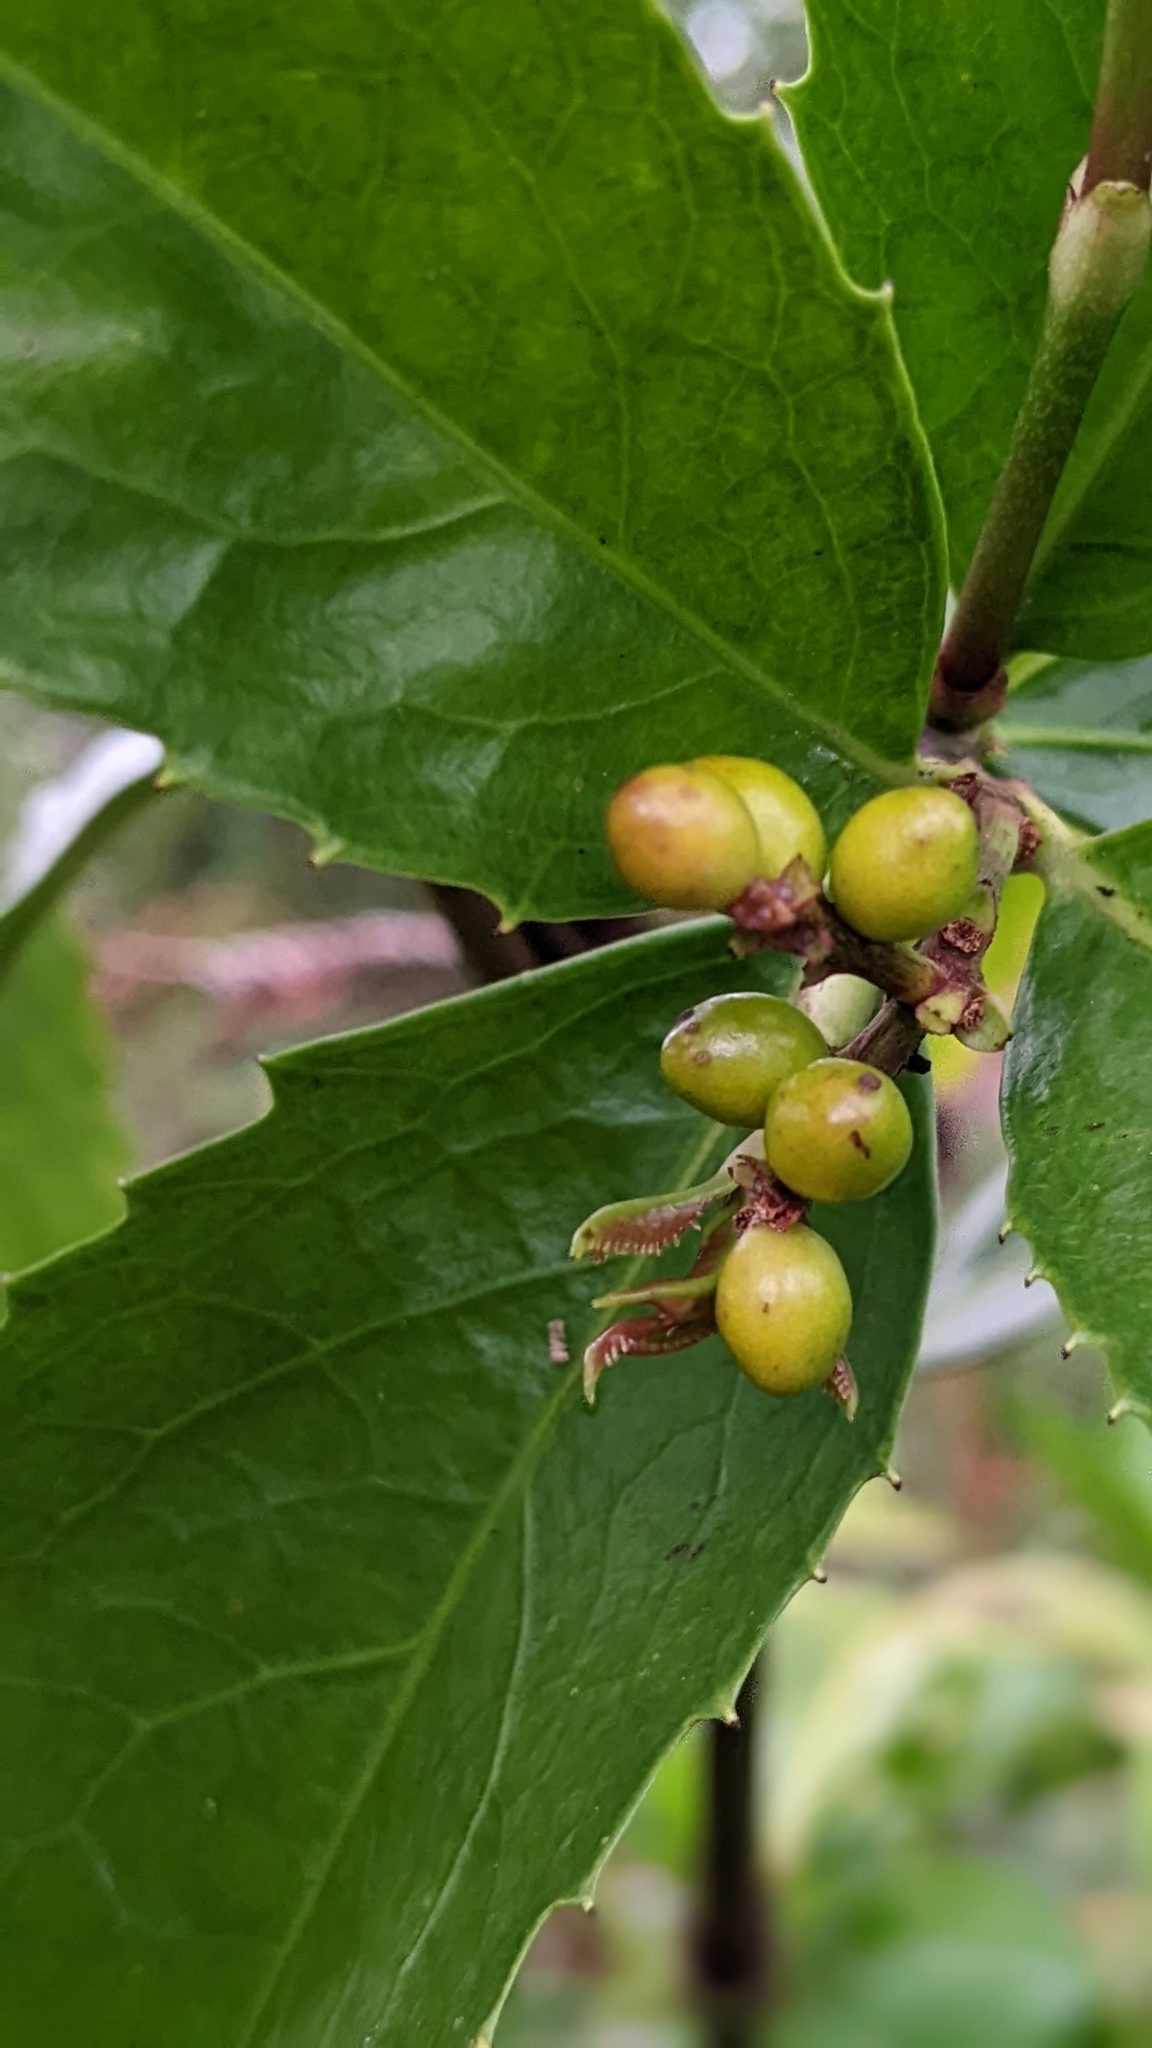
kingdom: Plantae
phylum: Tracheophyta
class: Magnoliopsida
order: Chloranthales
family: Chloranthaceae
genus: Sarcandra
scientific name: Sarcandra glabra
